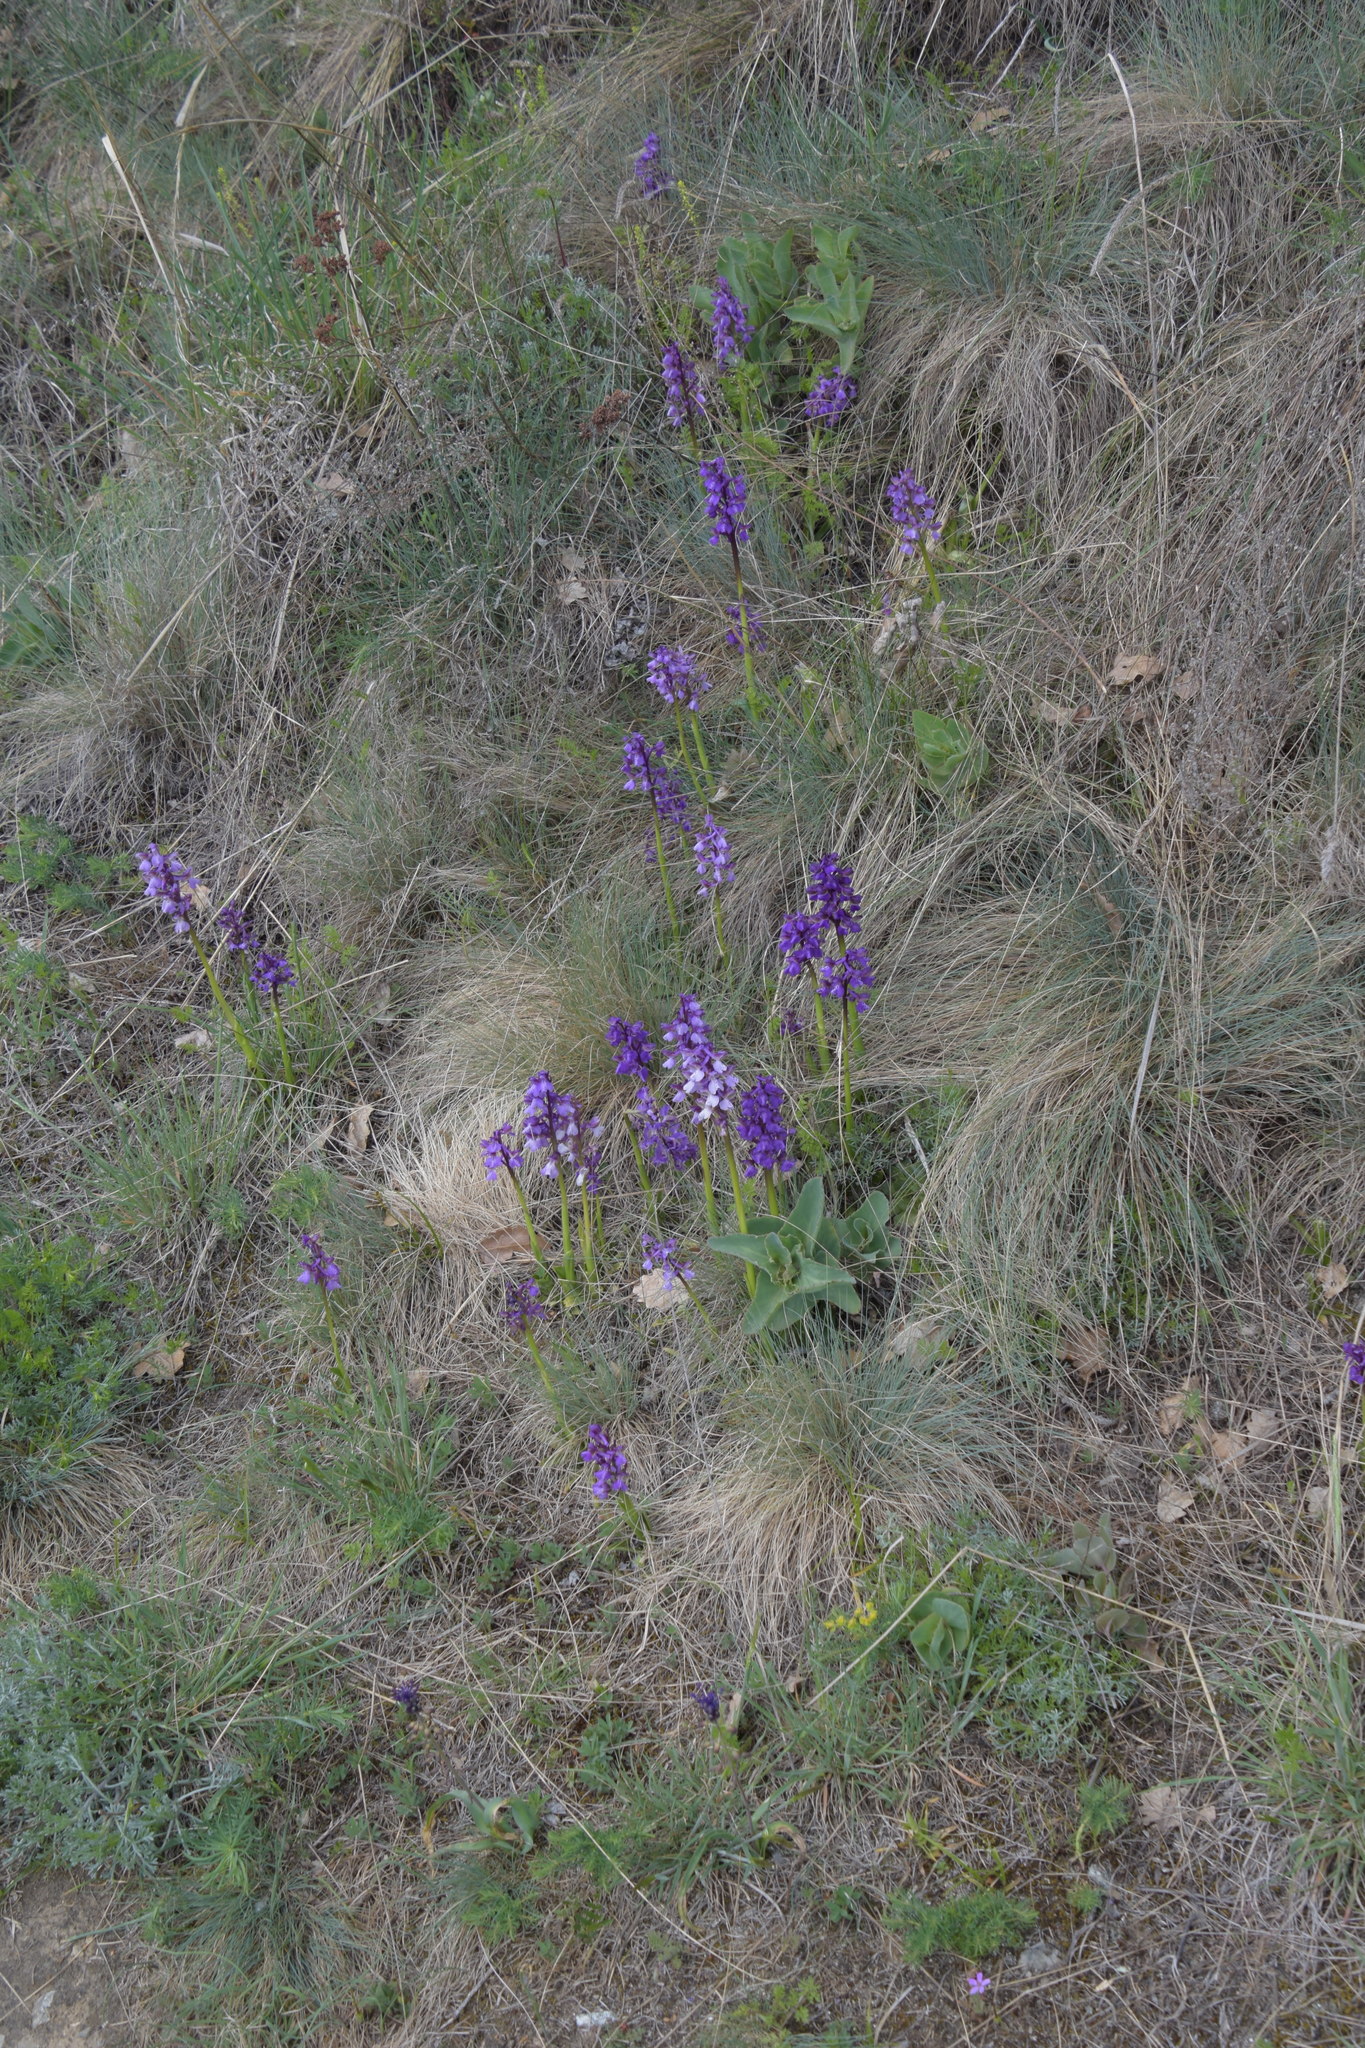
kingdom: Plantae
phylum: Tracheophyta
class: Liliopsida
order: Asparagales
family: Orchidaceae
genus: Anacamptis
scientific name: Anacamptis morio
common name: Green-winged orchid
